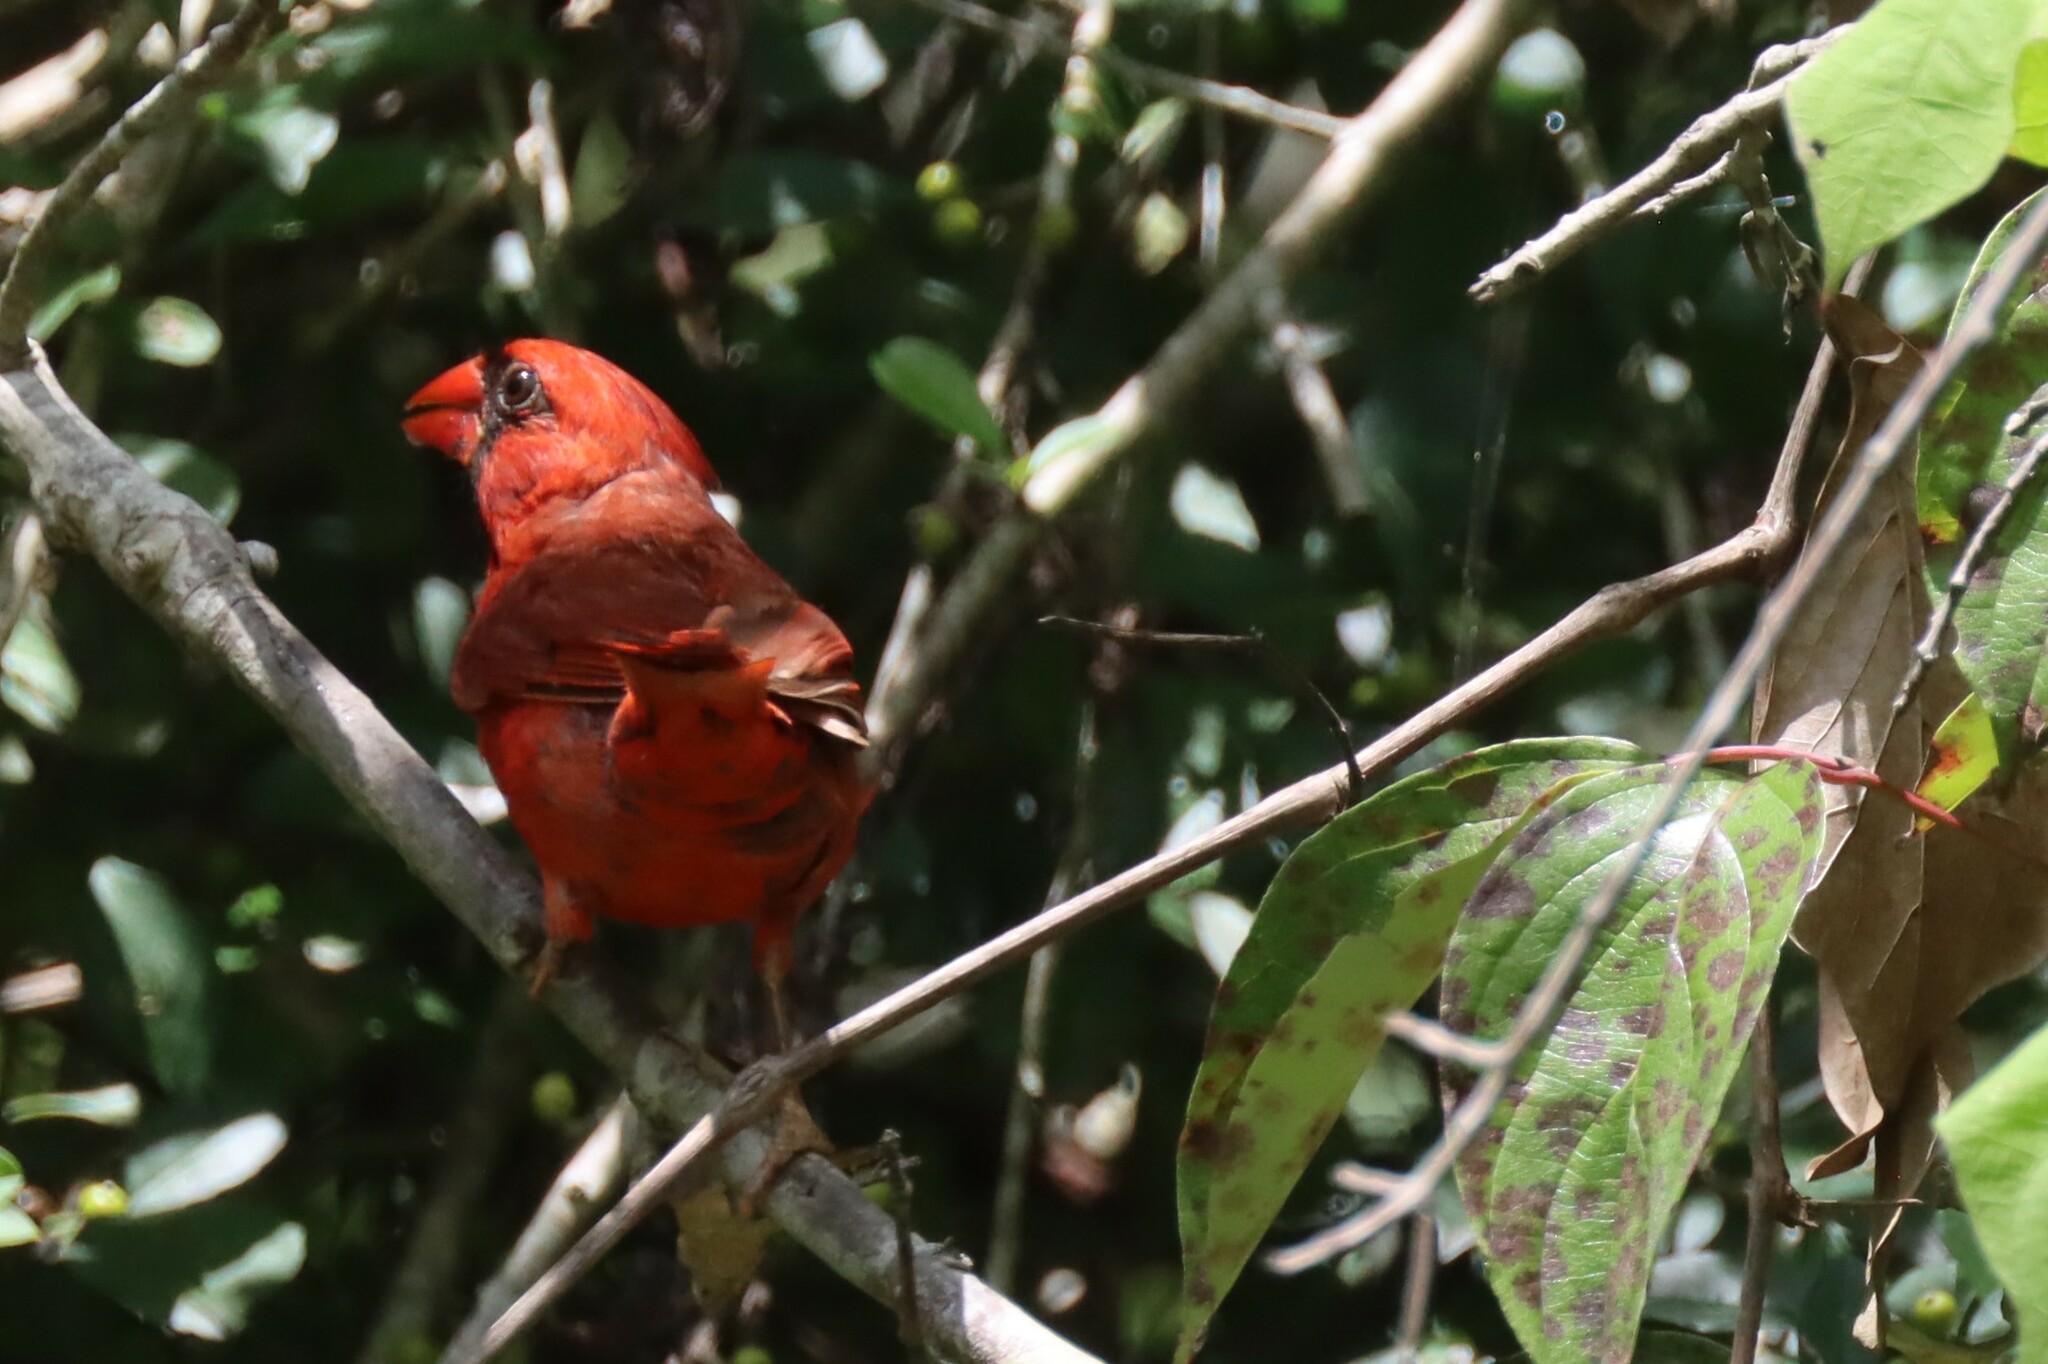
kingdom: Animalia
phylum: Chordata
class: Aves
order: Passeriformes
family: Cardinalidae
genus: Cardinalis
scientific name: Cardinalis cardinalis
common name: Northern cardinal
